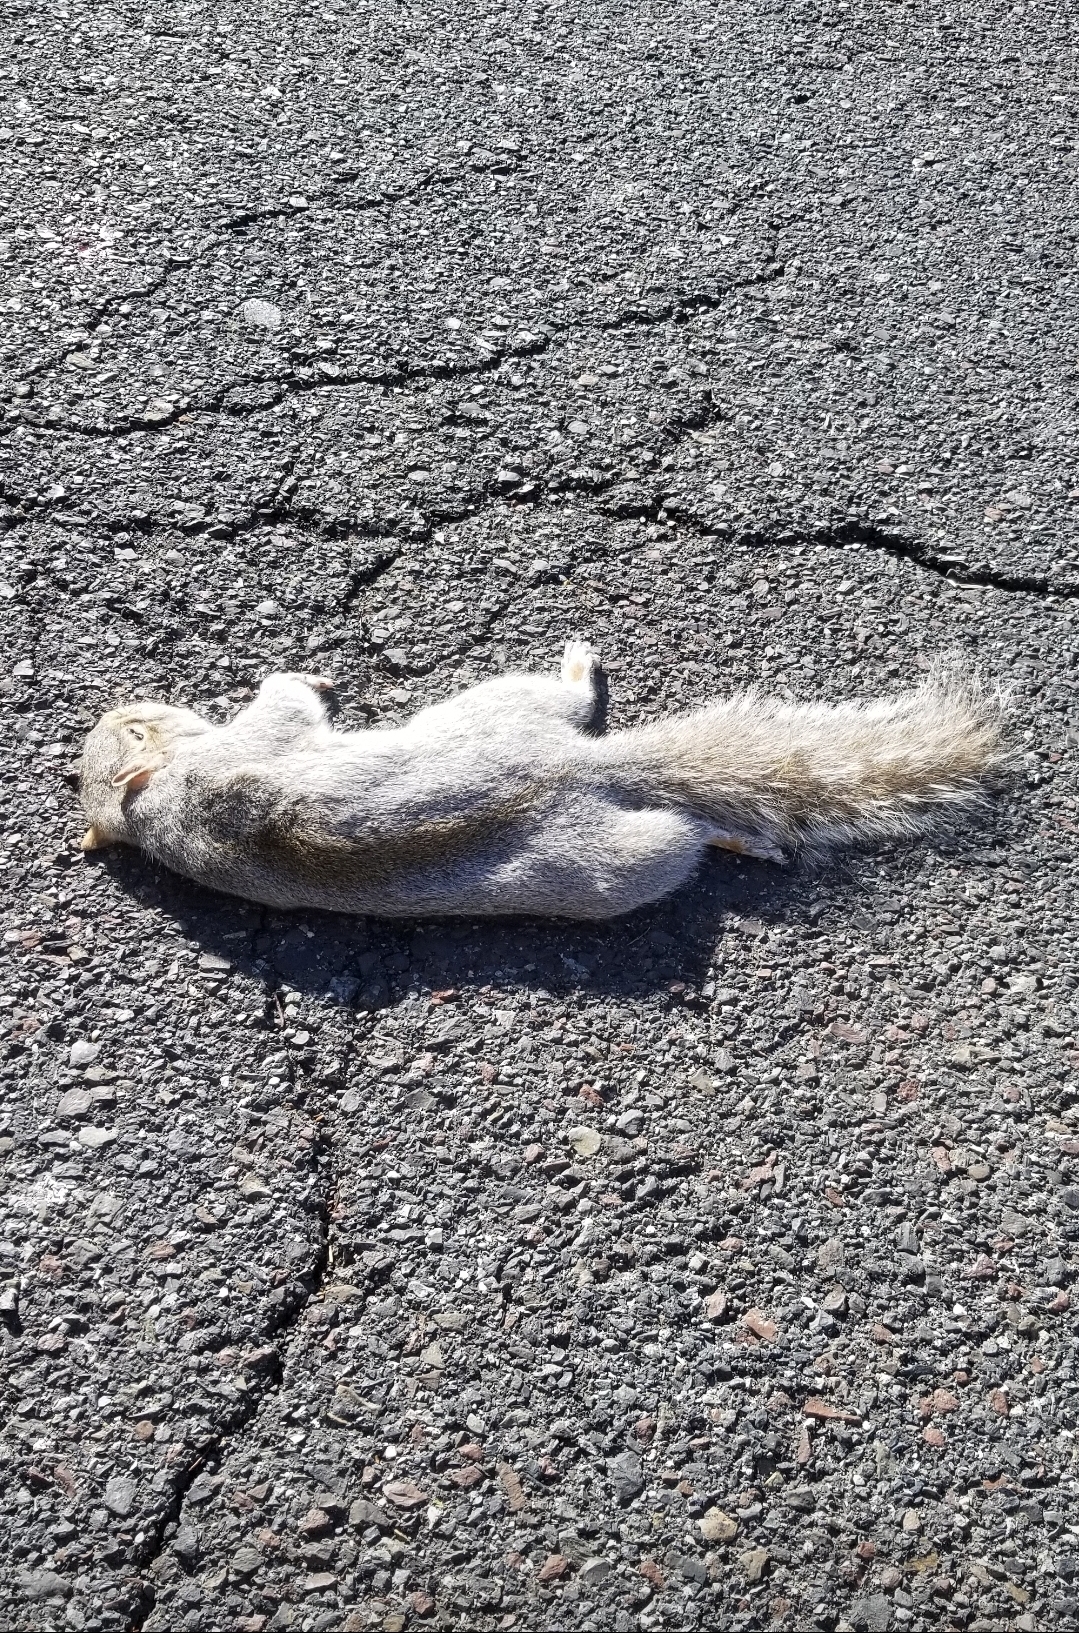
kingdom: Animalia
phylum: Chordata
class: Mammalia
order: Rodentia
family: Sciuridae
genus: Sciurus
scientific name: Sciurus carolinensis
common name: Eastern gray squirrel
